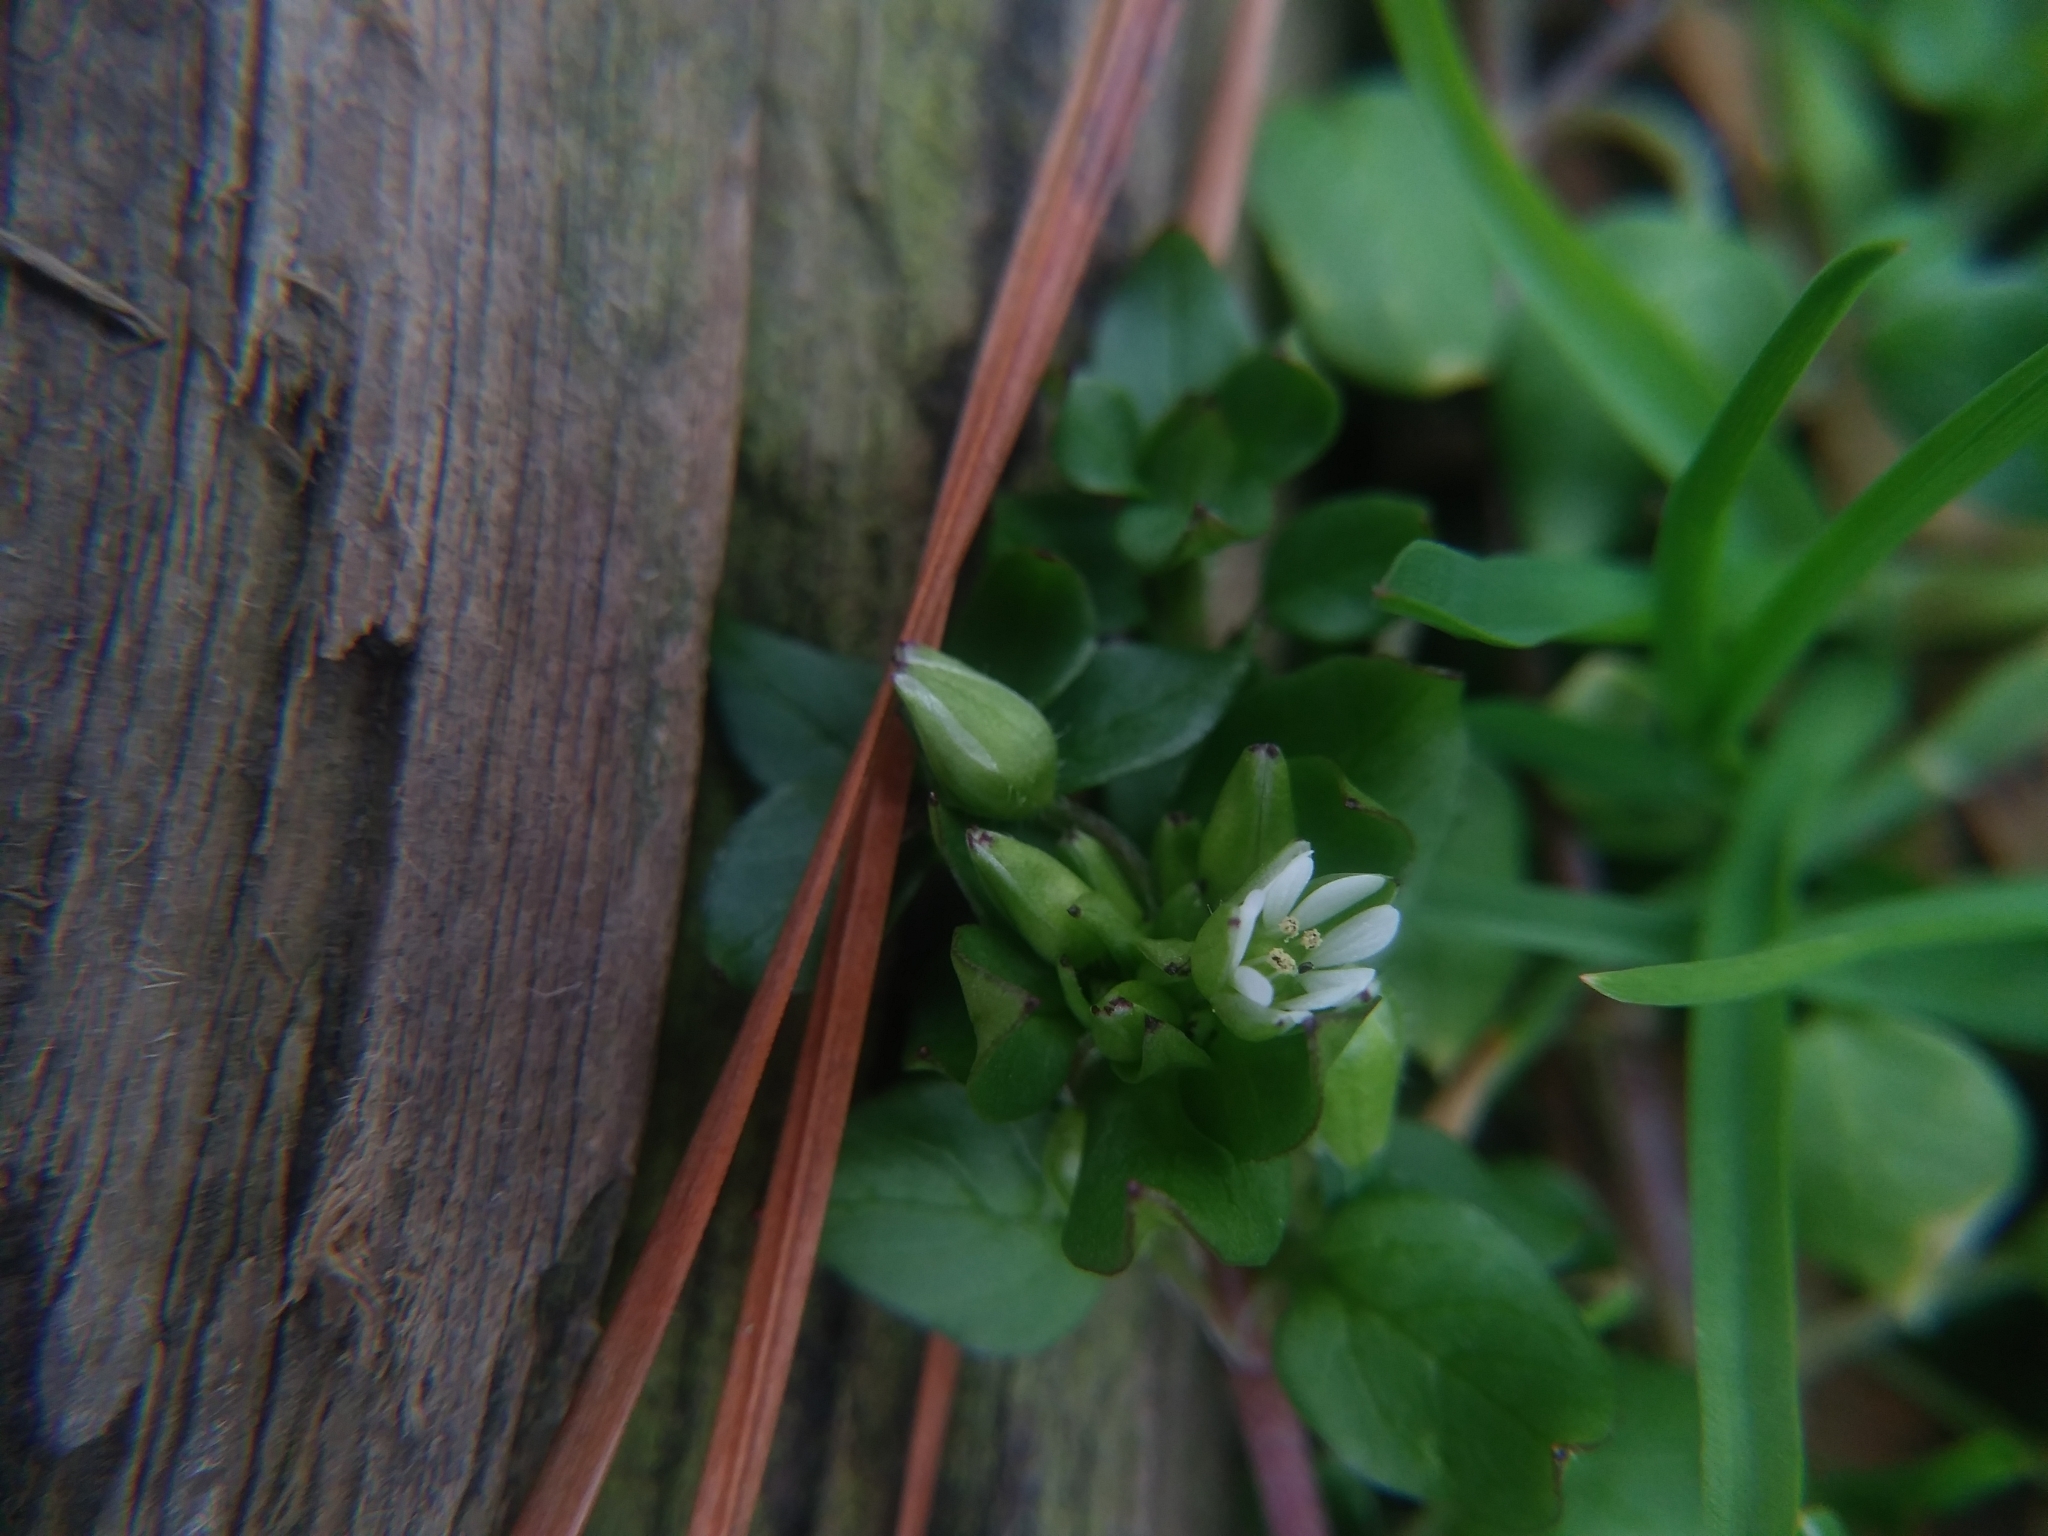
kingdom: Plantae
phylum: Tracheophyta
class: Magnoliopsida
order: Caryophyllales
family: Caryophyllaceae
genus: Stellaria
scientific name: Stellaria media
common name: Common chickweed
